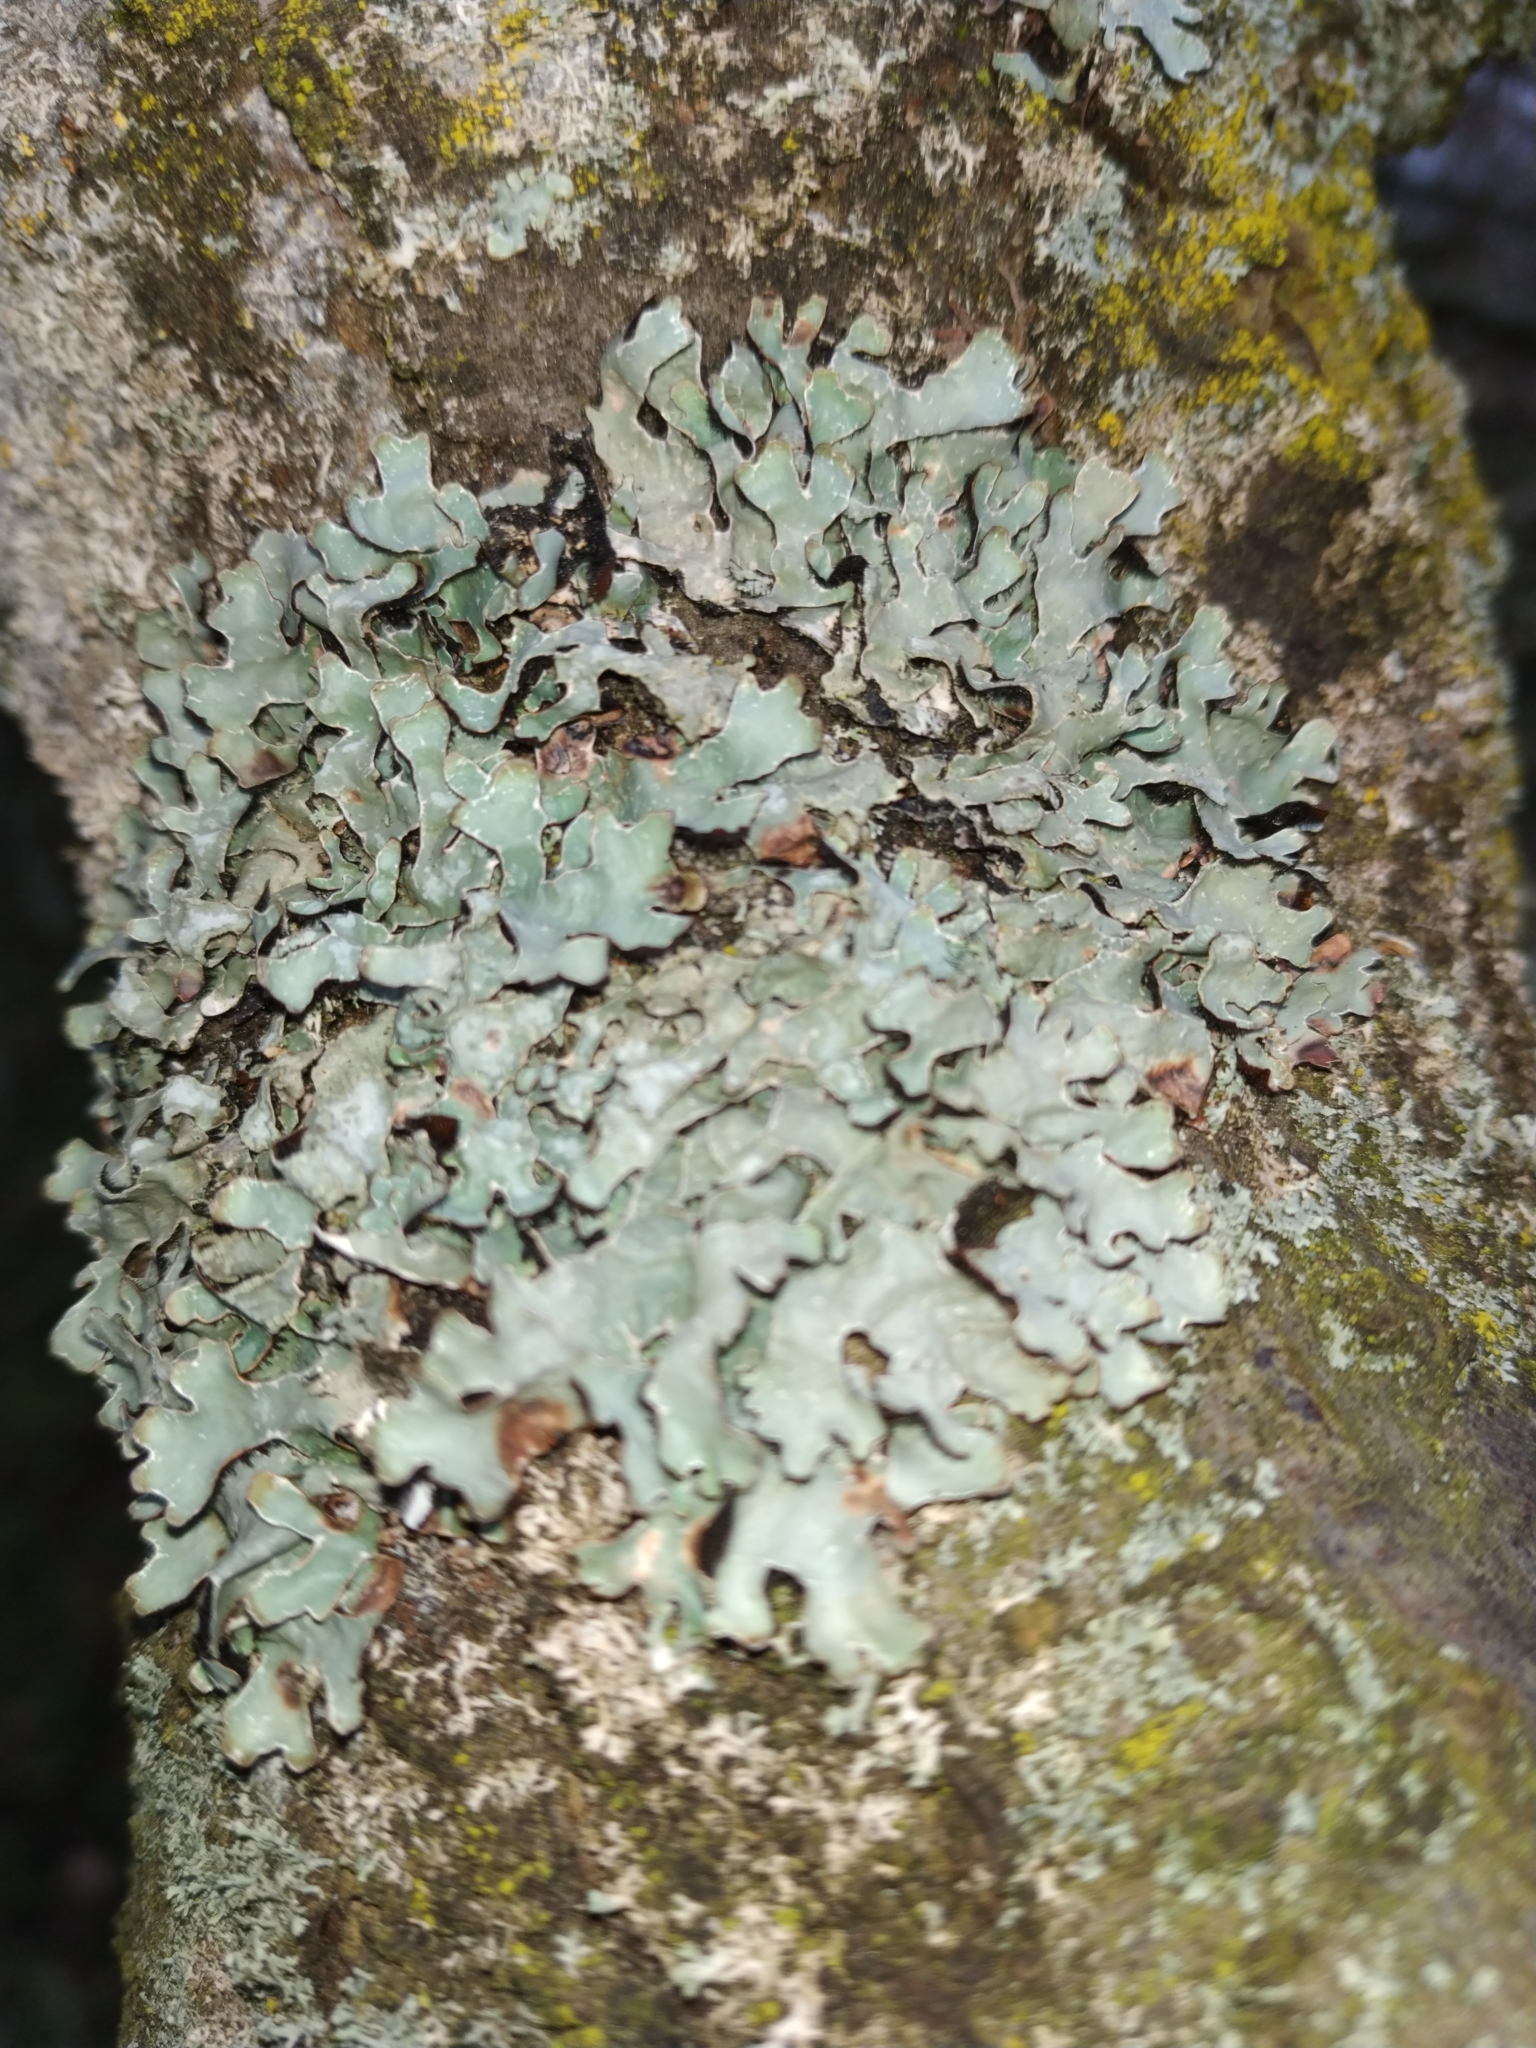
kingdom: Fungi
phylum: Ascomycota
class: Lecanoromycetes
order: Lecanorales
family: Parmeliaceae
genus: Parmelia
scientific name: Parmelia sulcata
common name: Netted shield lichen
